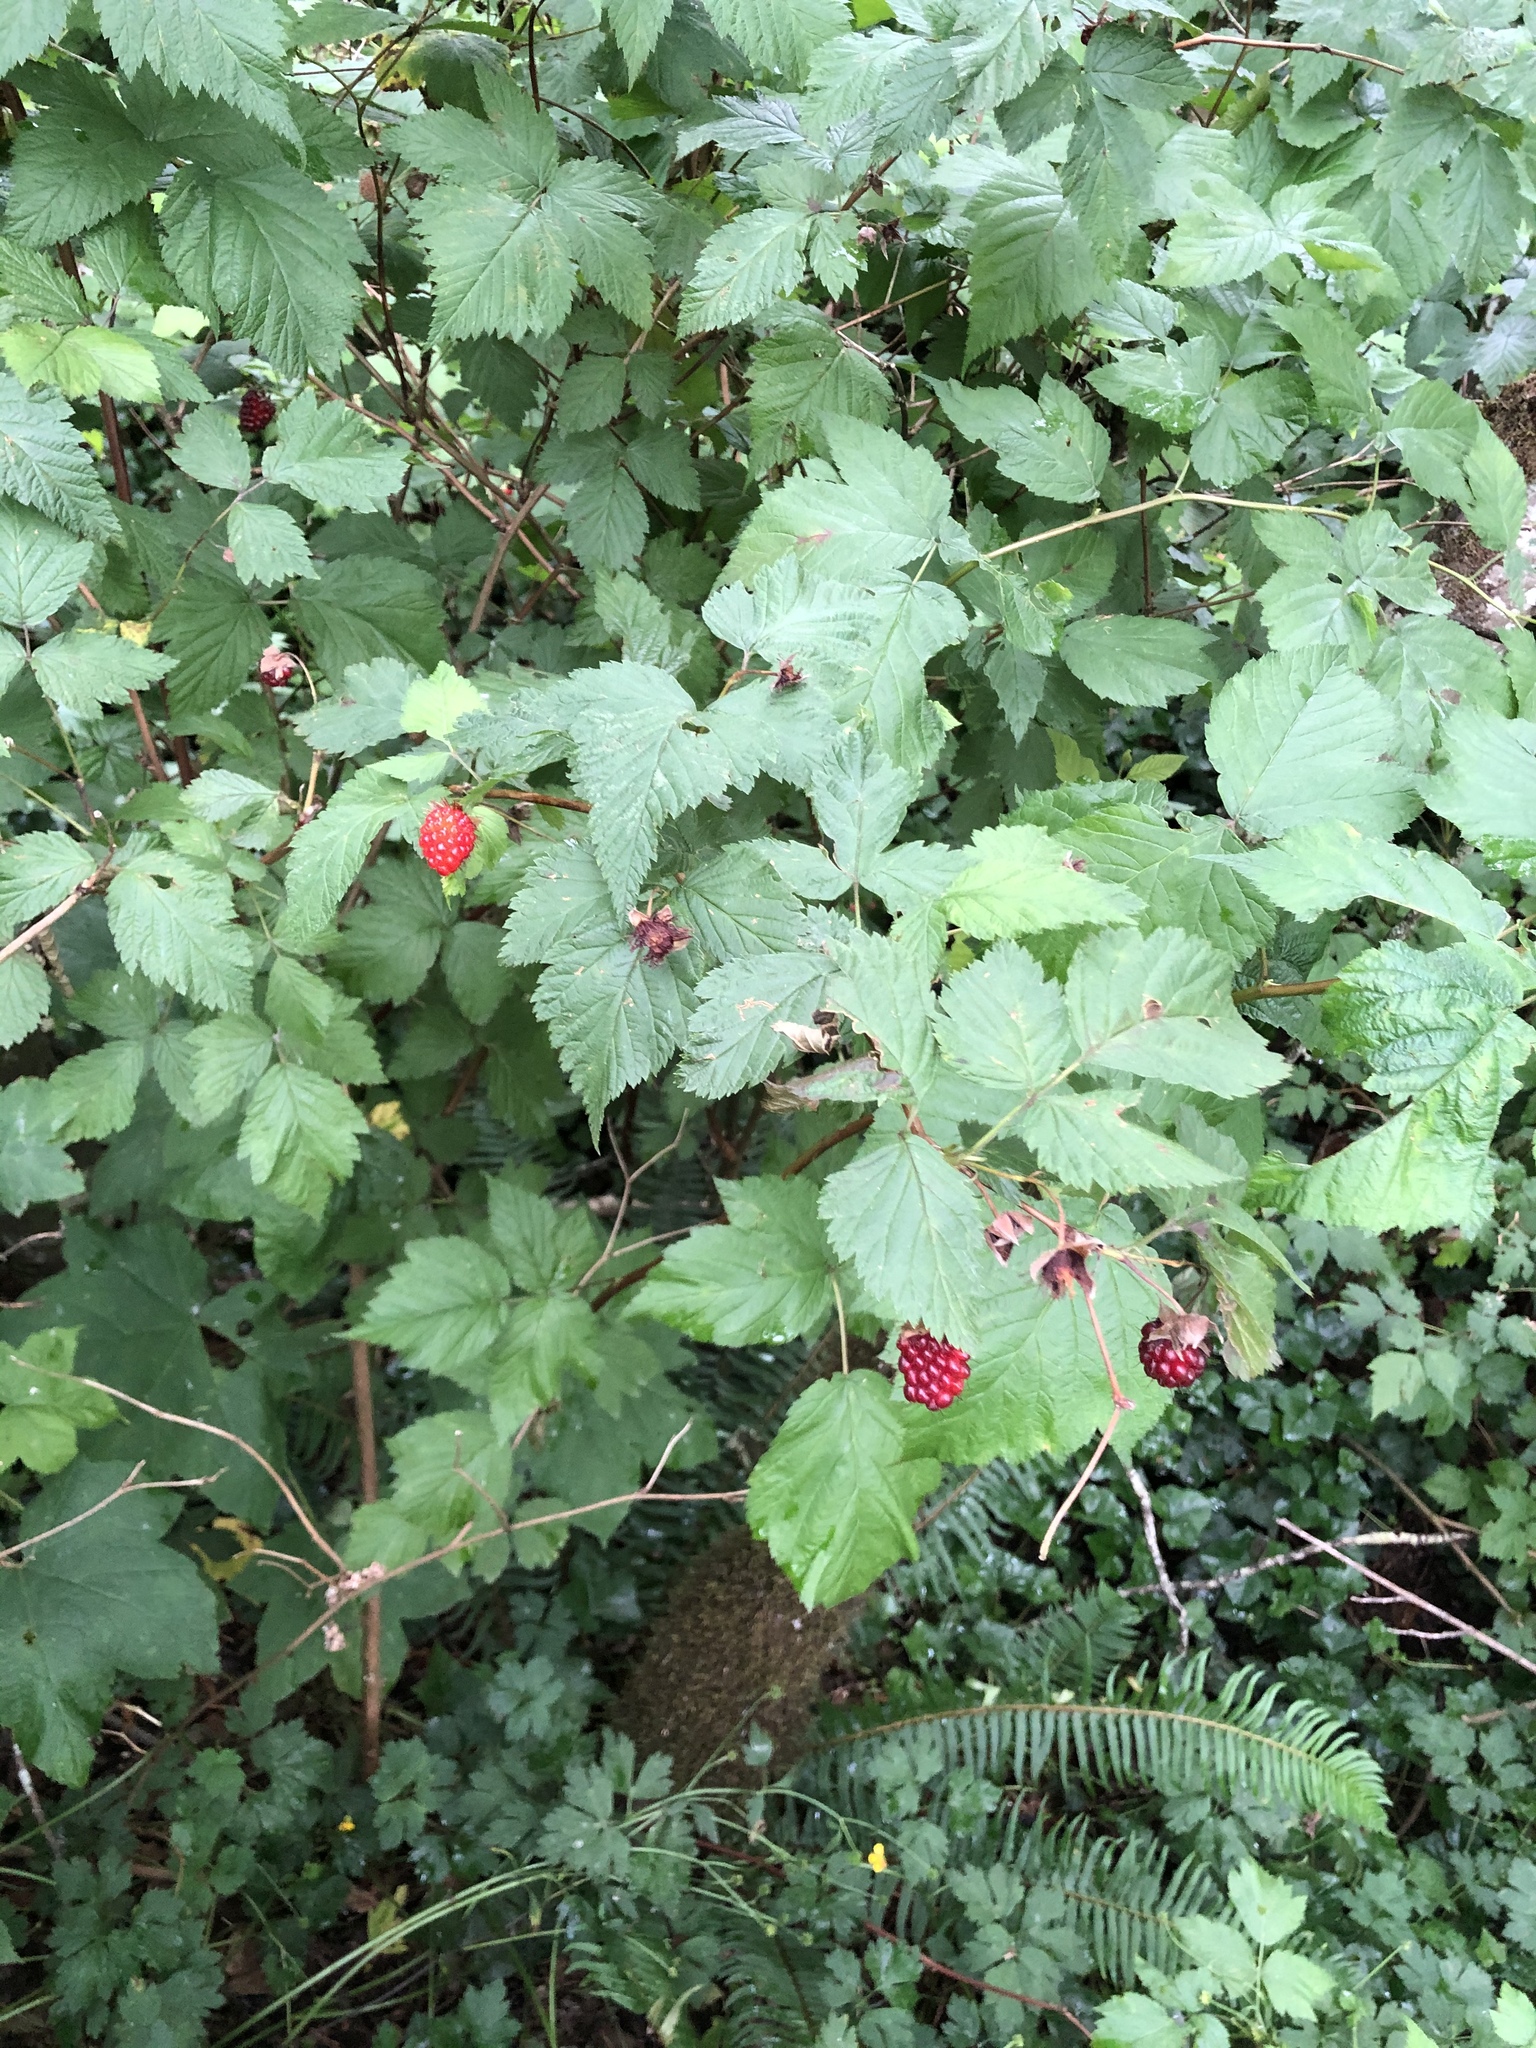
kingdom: Plantae
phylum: Tracheophyta
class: Magnoliopsida
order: Rosales
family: Rosaceae
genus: Rubus
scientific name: Rubus spectabilis
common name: Salmonberry
